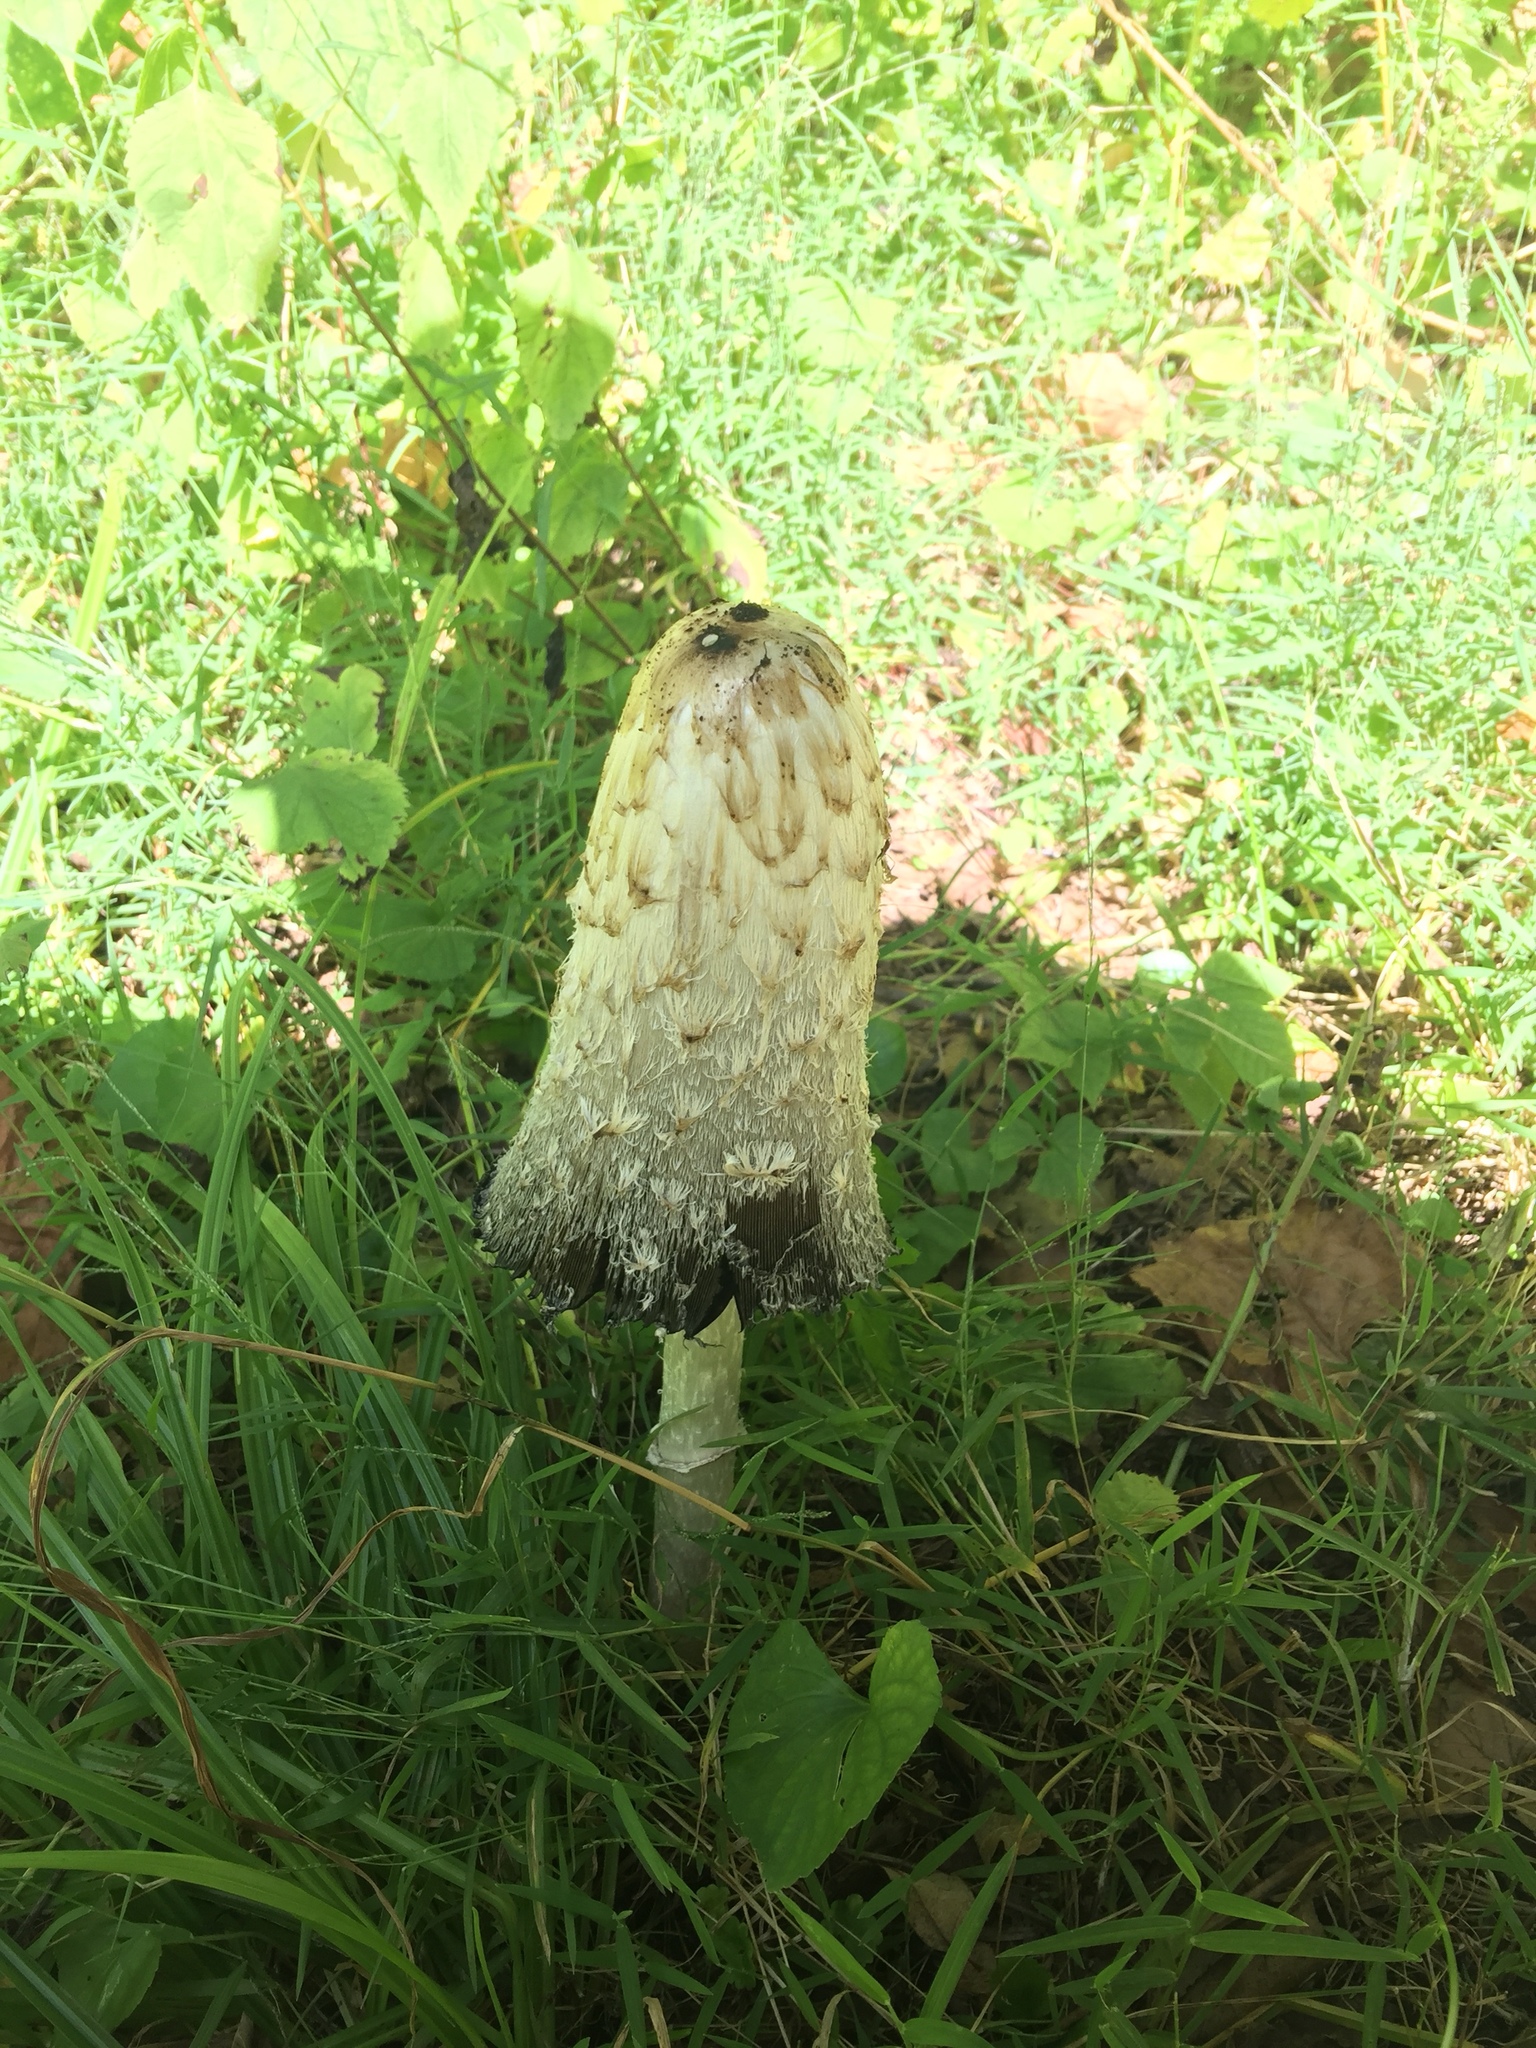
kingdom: Fungi
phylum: Basidiomycota
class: Agaricomycetes
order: Agaricales
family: Agaricaceae
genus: Coprinus
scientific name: Coprinus comatus
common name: Lawyer's wig
